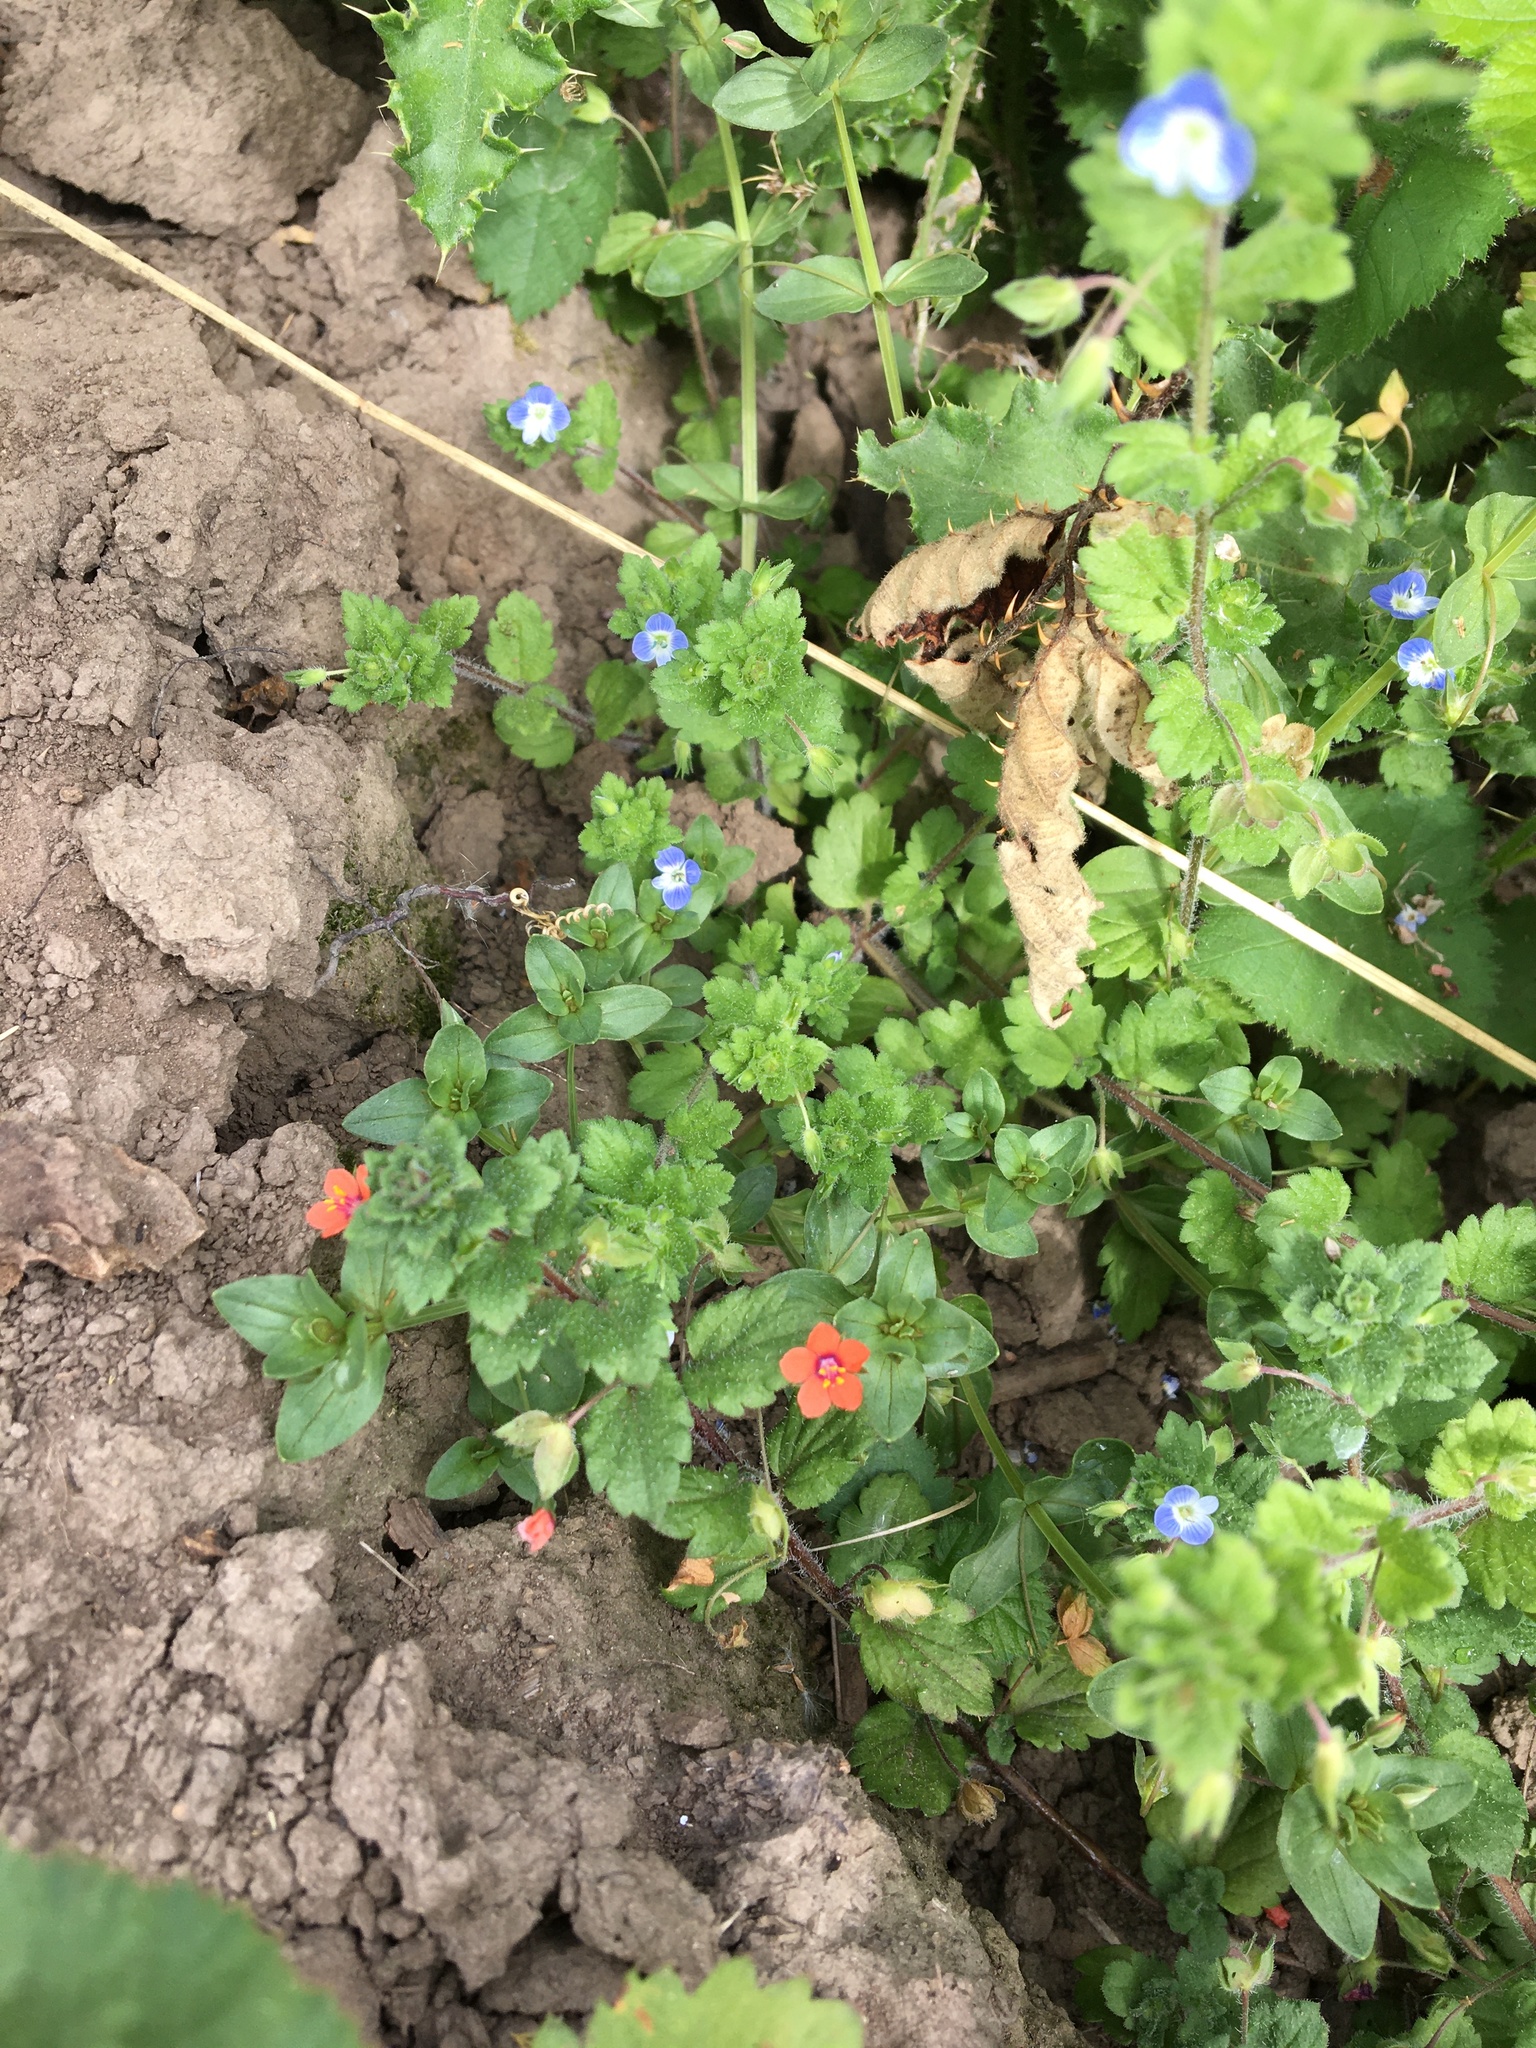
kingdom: Plantae
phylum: Tracheophyta
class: Magnoliopsida
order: Ericales
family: Primulaceae
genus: Lysimachia
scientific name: Lysimachia arvensis
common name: Scarlet pimpernel
